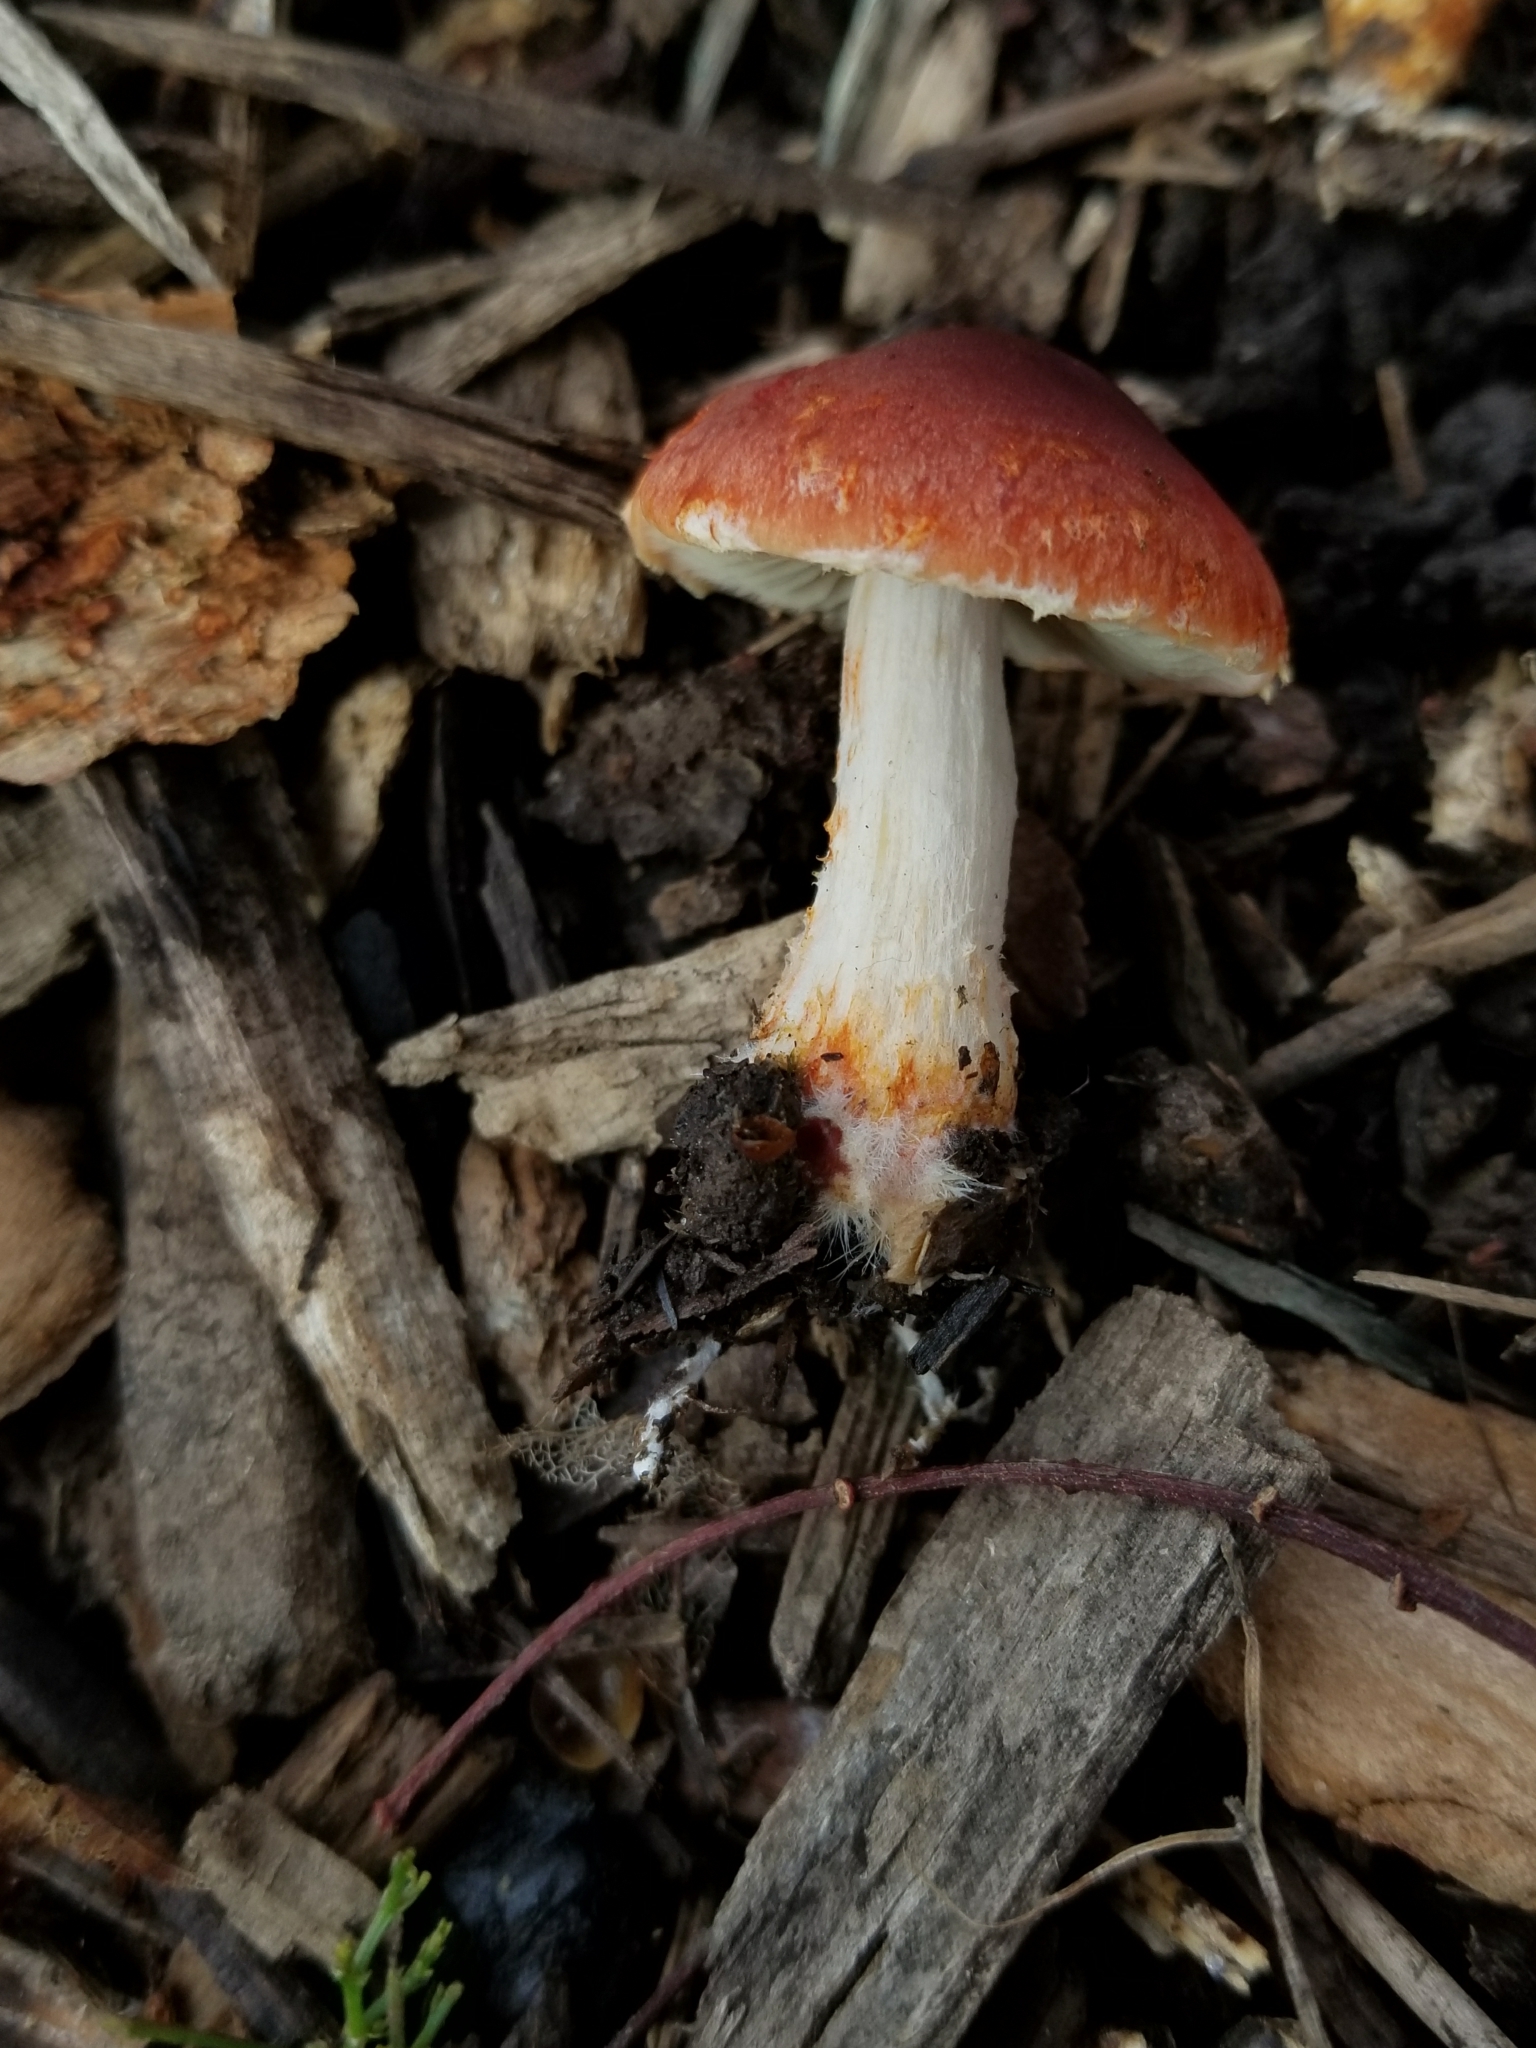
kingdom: Fungi
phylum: Basidiomycota
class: Agaricomycetes
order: Agaricales
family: Strophariaceae
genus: Leratiomyces
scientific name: Leratiomyces ceres
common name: Redlead roundhead
